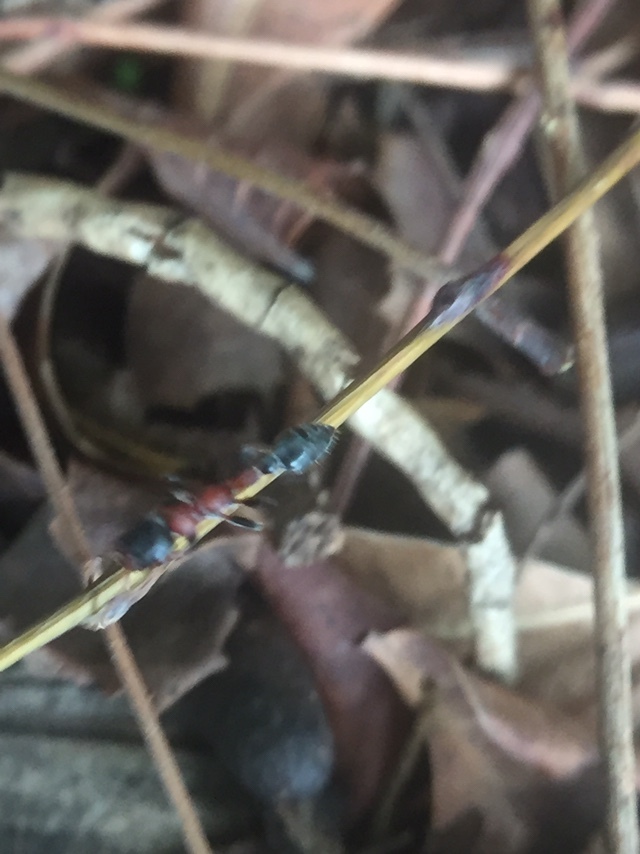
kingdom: Animalia
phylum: Arthropoda
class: Insecta
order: Hymenoptera
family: Formicidae
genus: Tetraponera
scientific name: Tetraponera rufonigra
